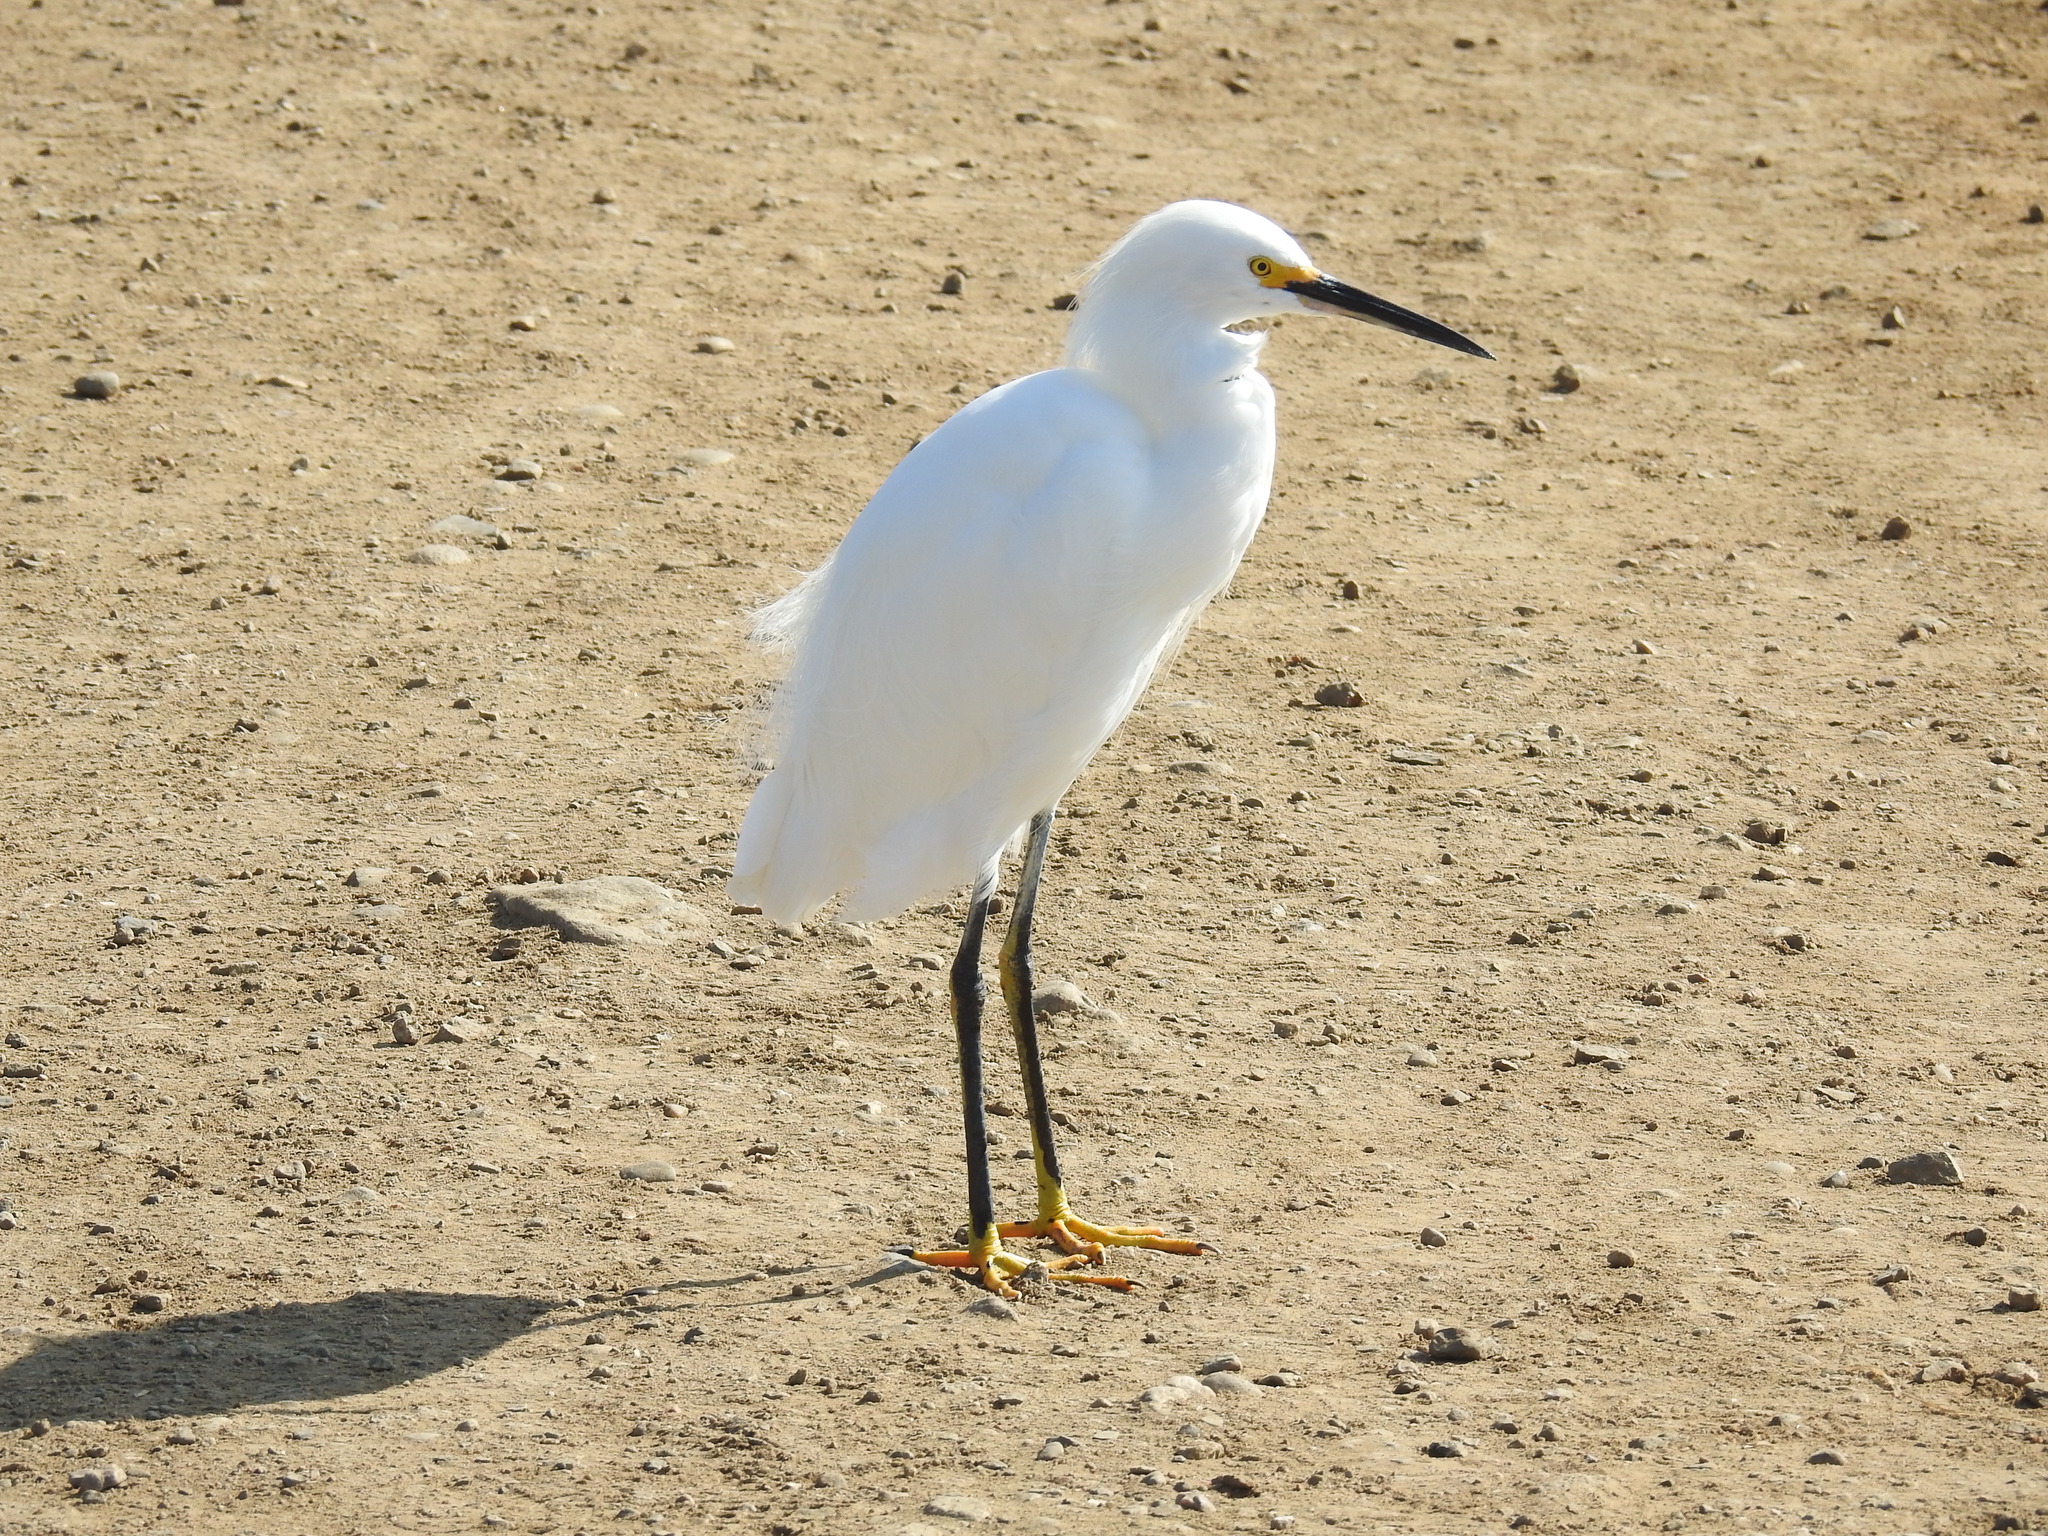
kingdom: Animalia
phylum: Chordata
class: Aves
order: Pelecaniformes
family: Ardeidae
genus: Egretta
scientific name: Egretta thula
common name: Snowy egret
